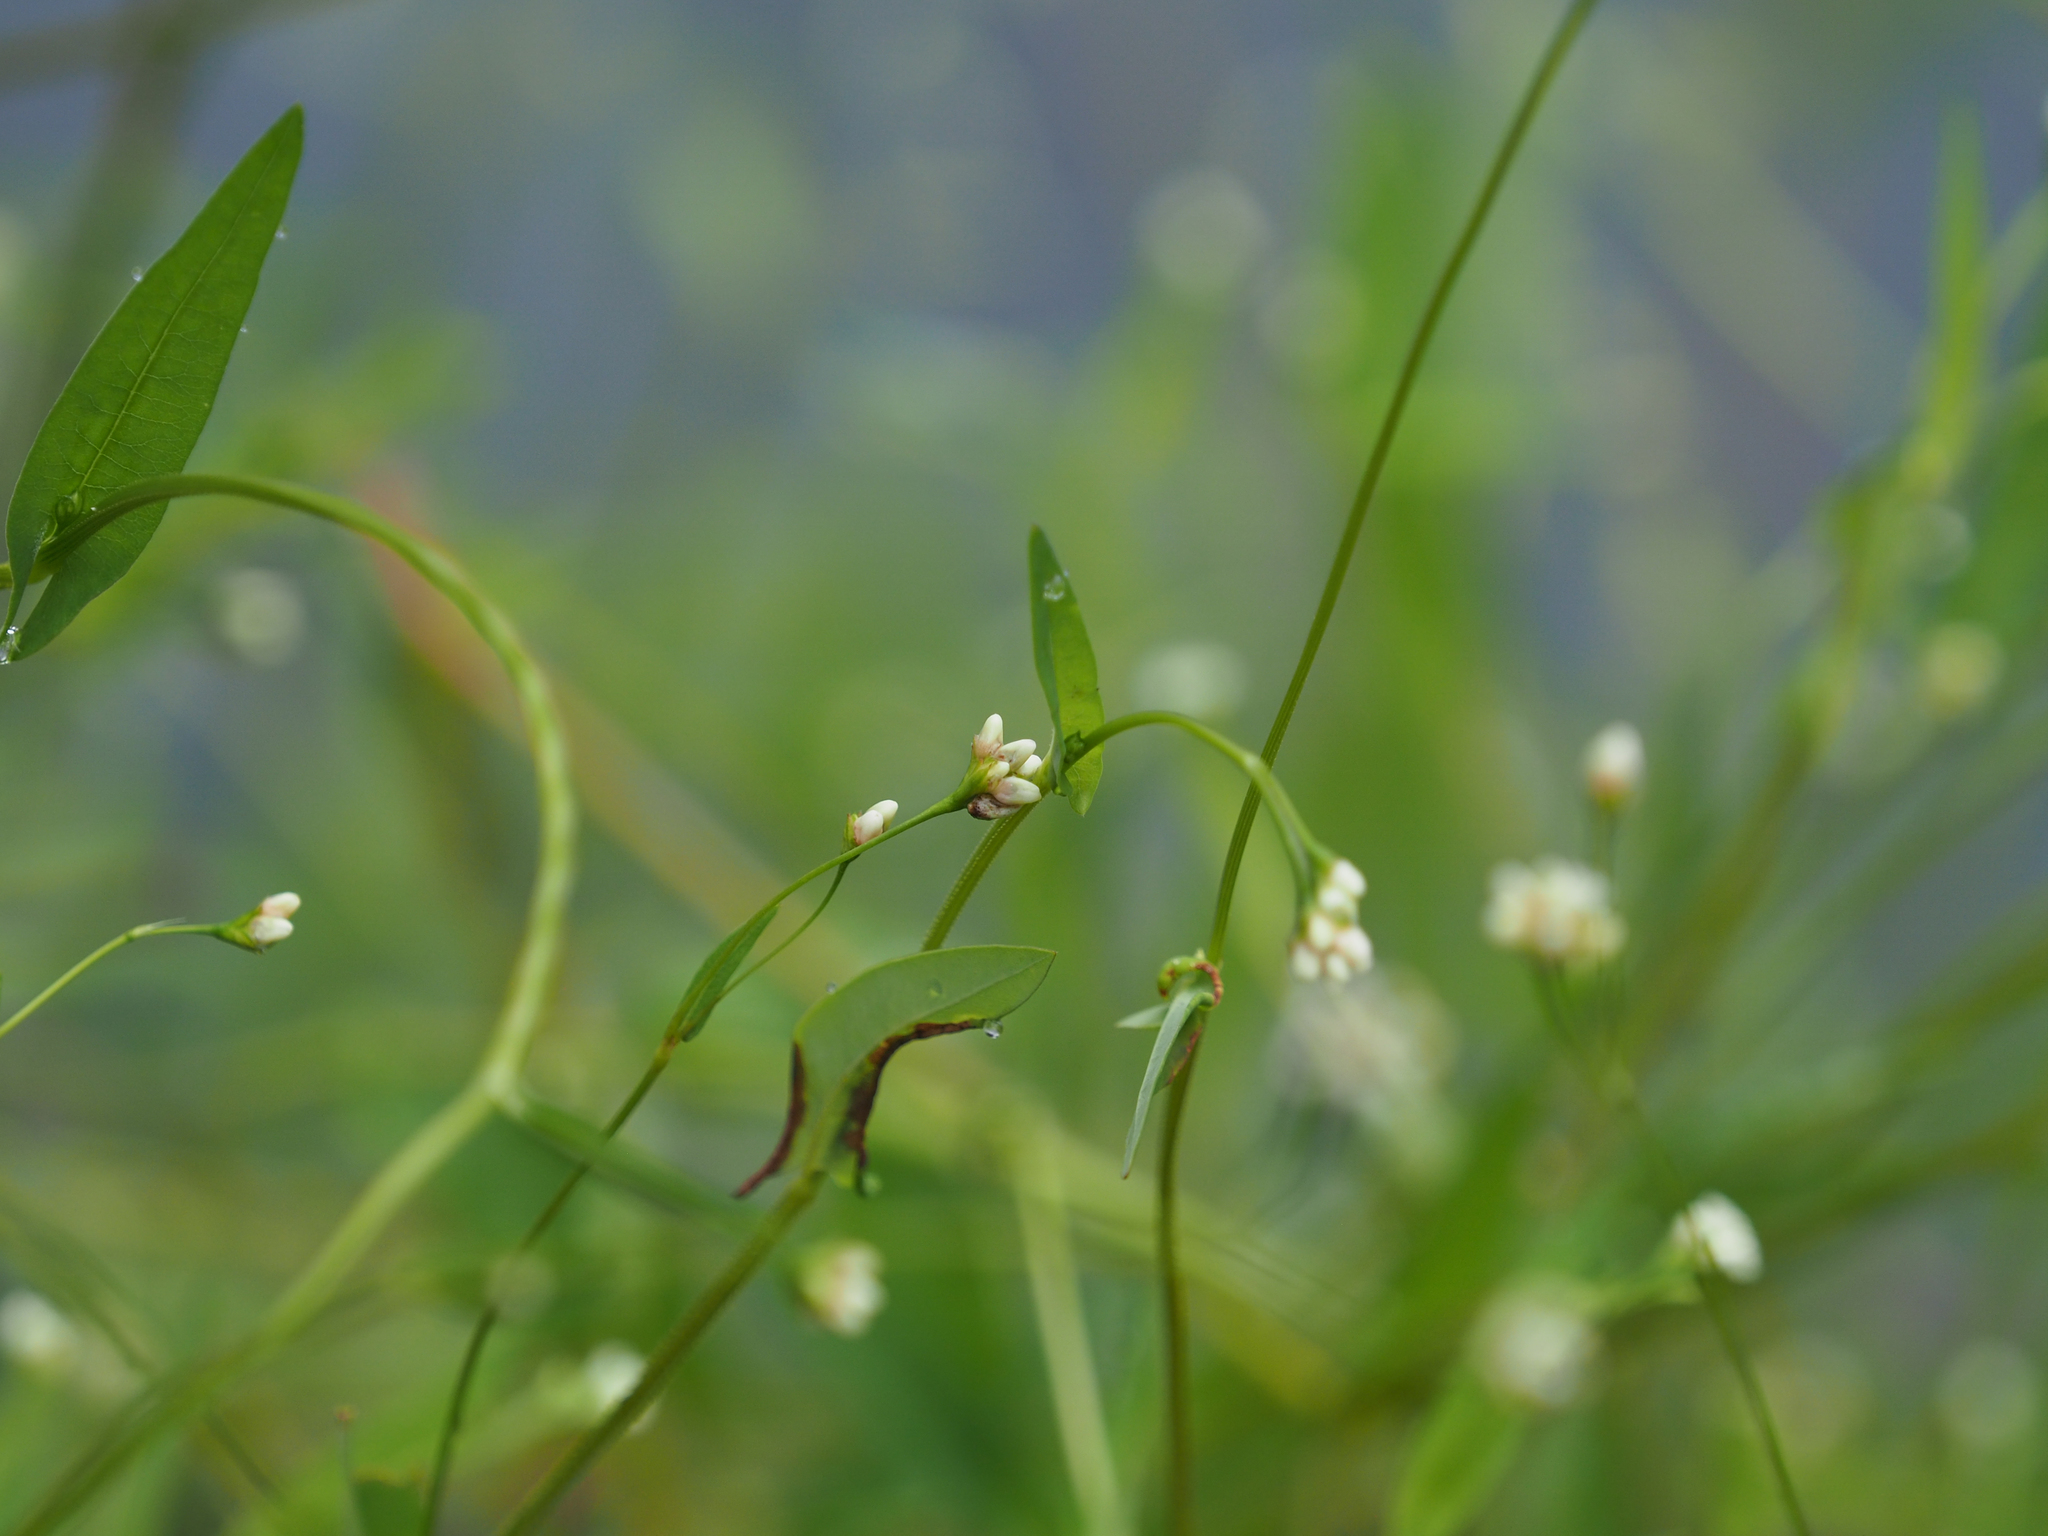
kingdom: Plantae
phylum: Tracheophyta
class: Magnoliopsida
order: Caryophyllales
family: Polygonaceae
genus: Persicaria
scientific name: Persicaria sagittata
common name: American tearthumb
